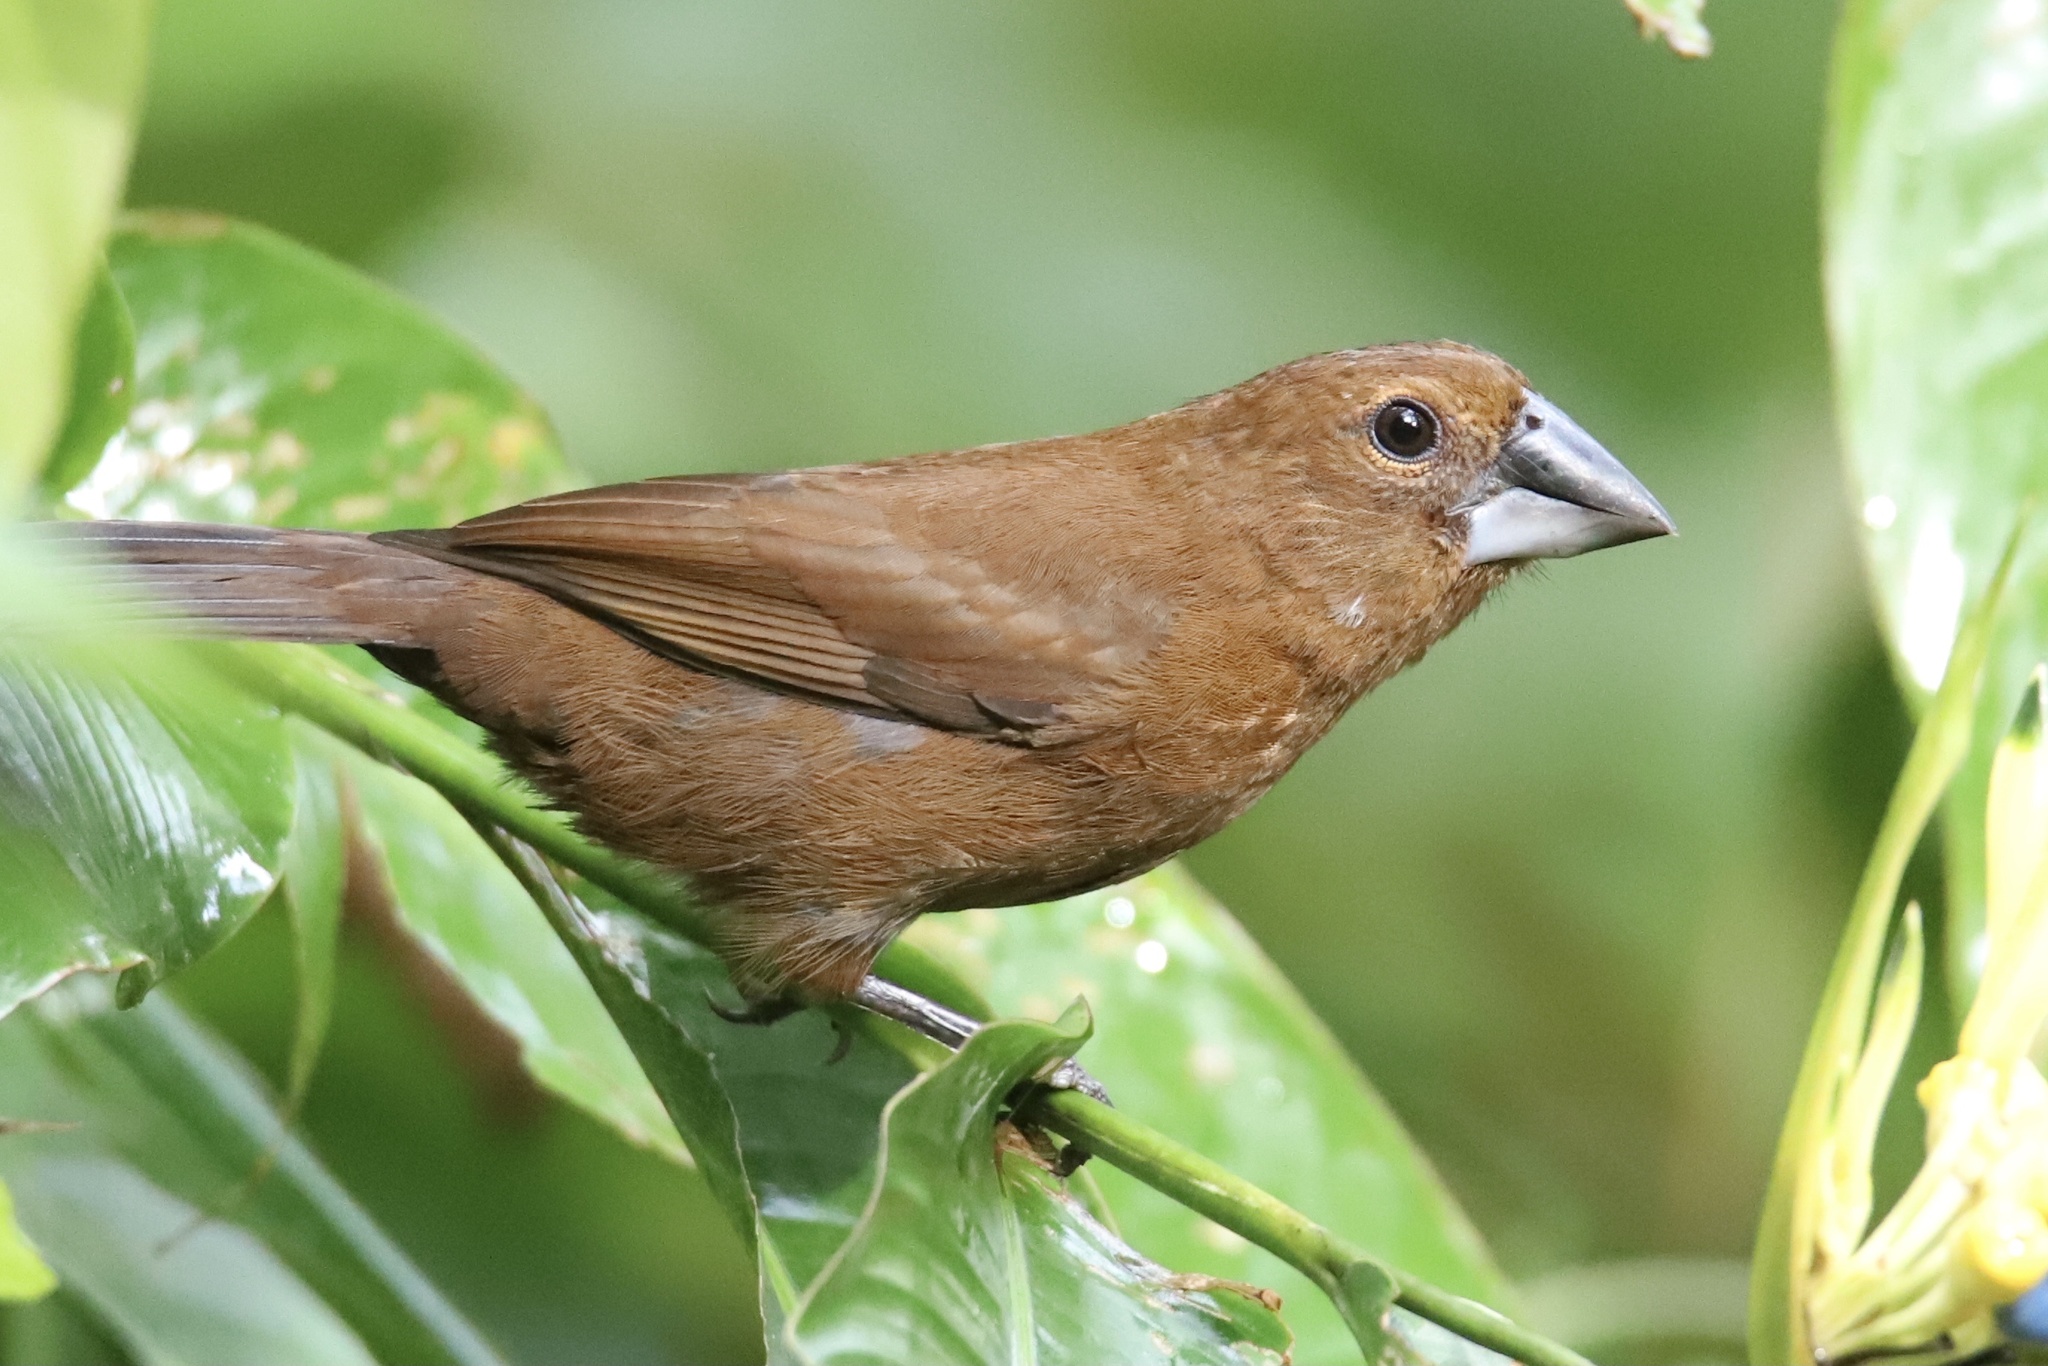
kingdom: Animalia
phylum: Chordata
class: Aves
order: Passeriformes
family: Cardinalidae
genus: Cyanocompsa
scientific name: Cyanocompsa cyanoides
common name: Blue-black grosbeak
